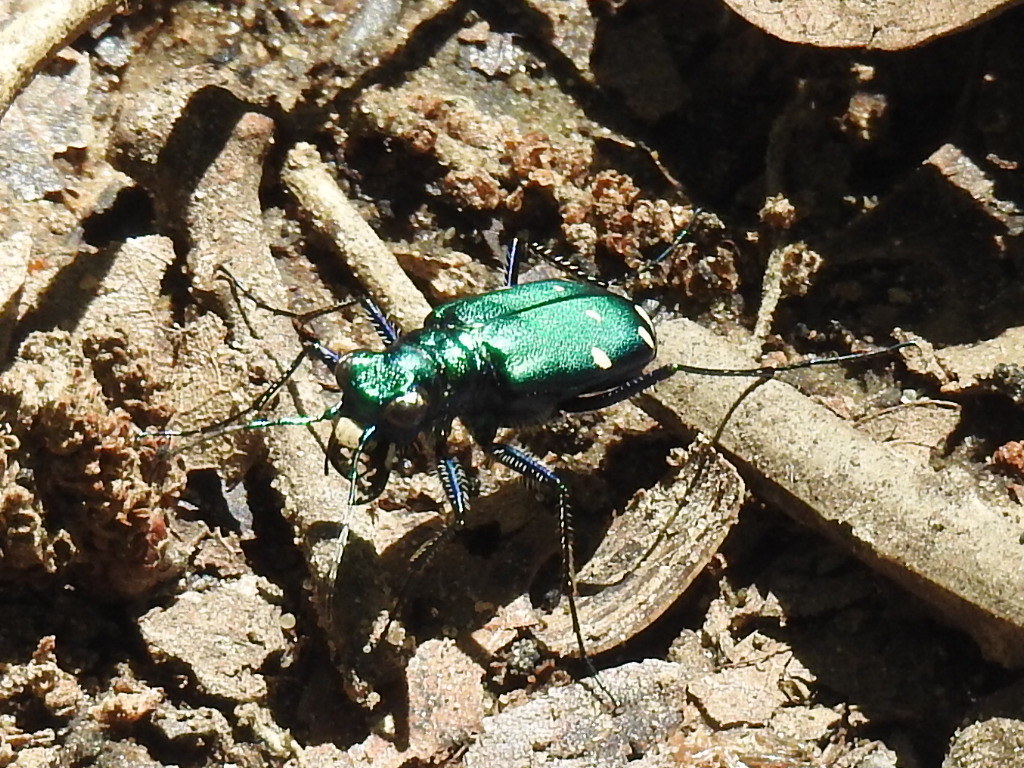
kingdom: Animalia
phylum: Arthropoda
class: Insecta
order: Coleoptera
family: Carabidae
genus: Cicindela
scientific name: Cicindela sexguttata
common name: Six-spotted tiger beetle
